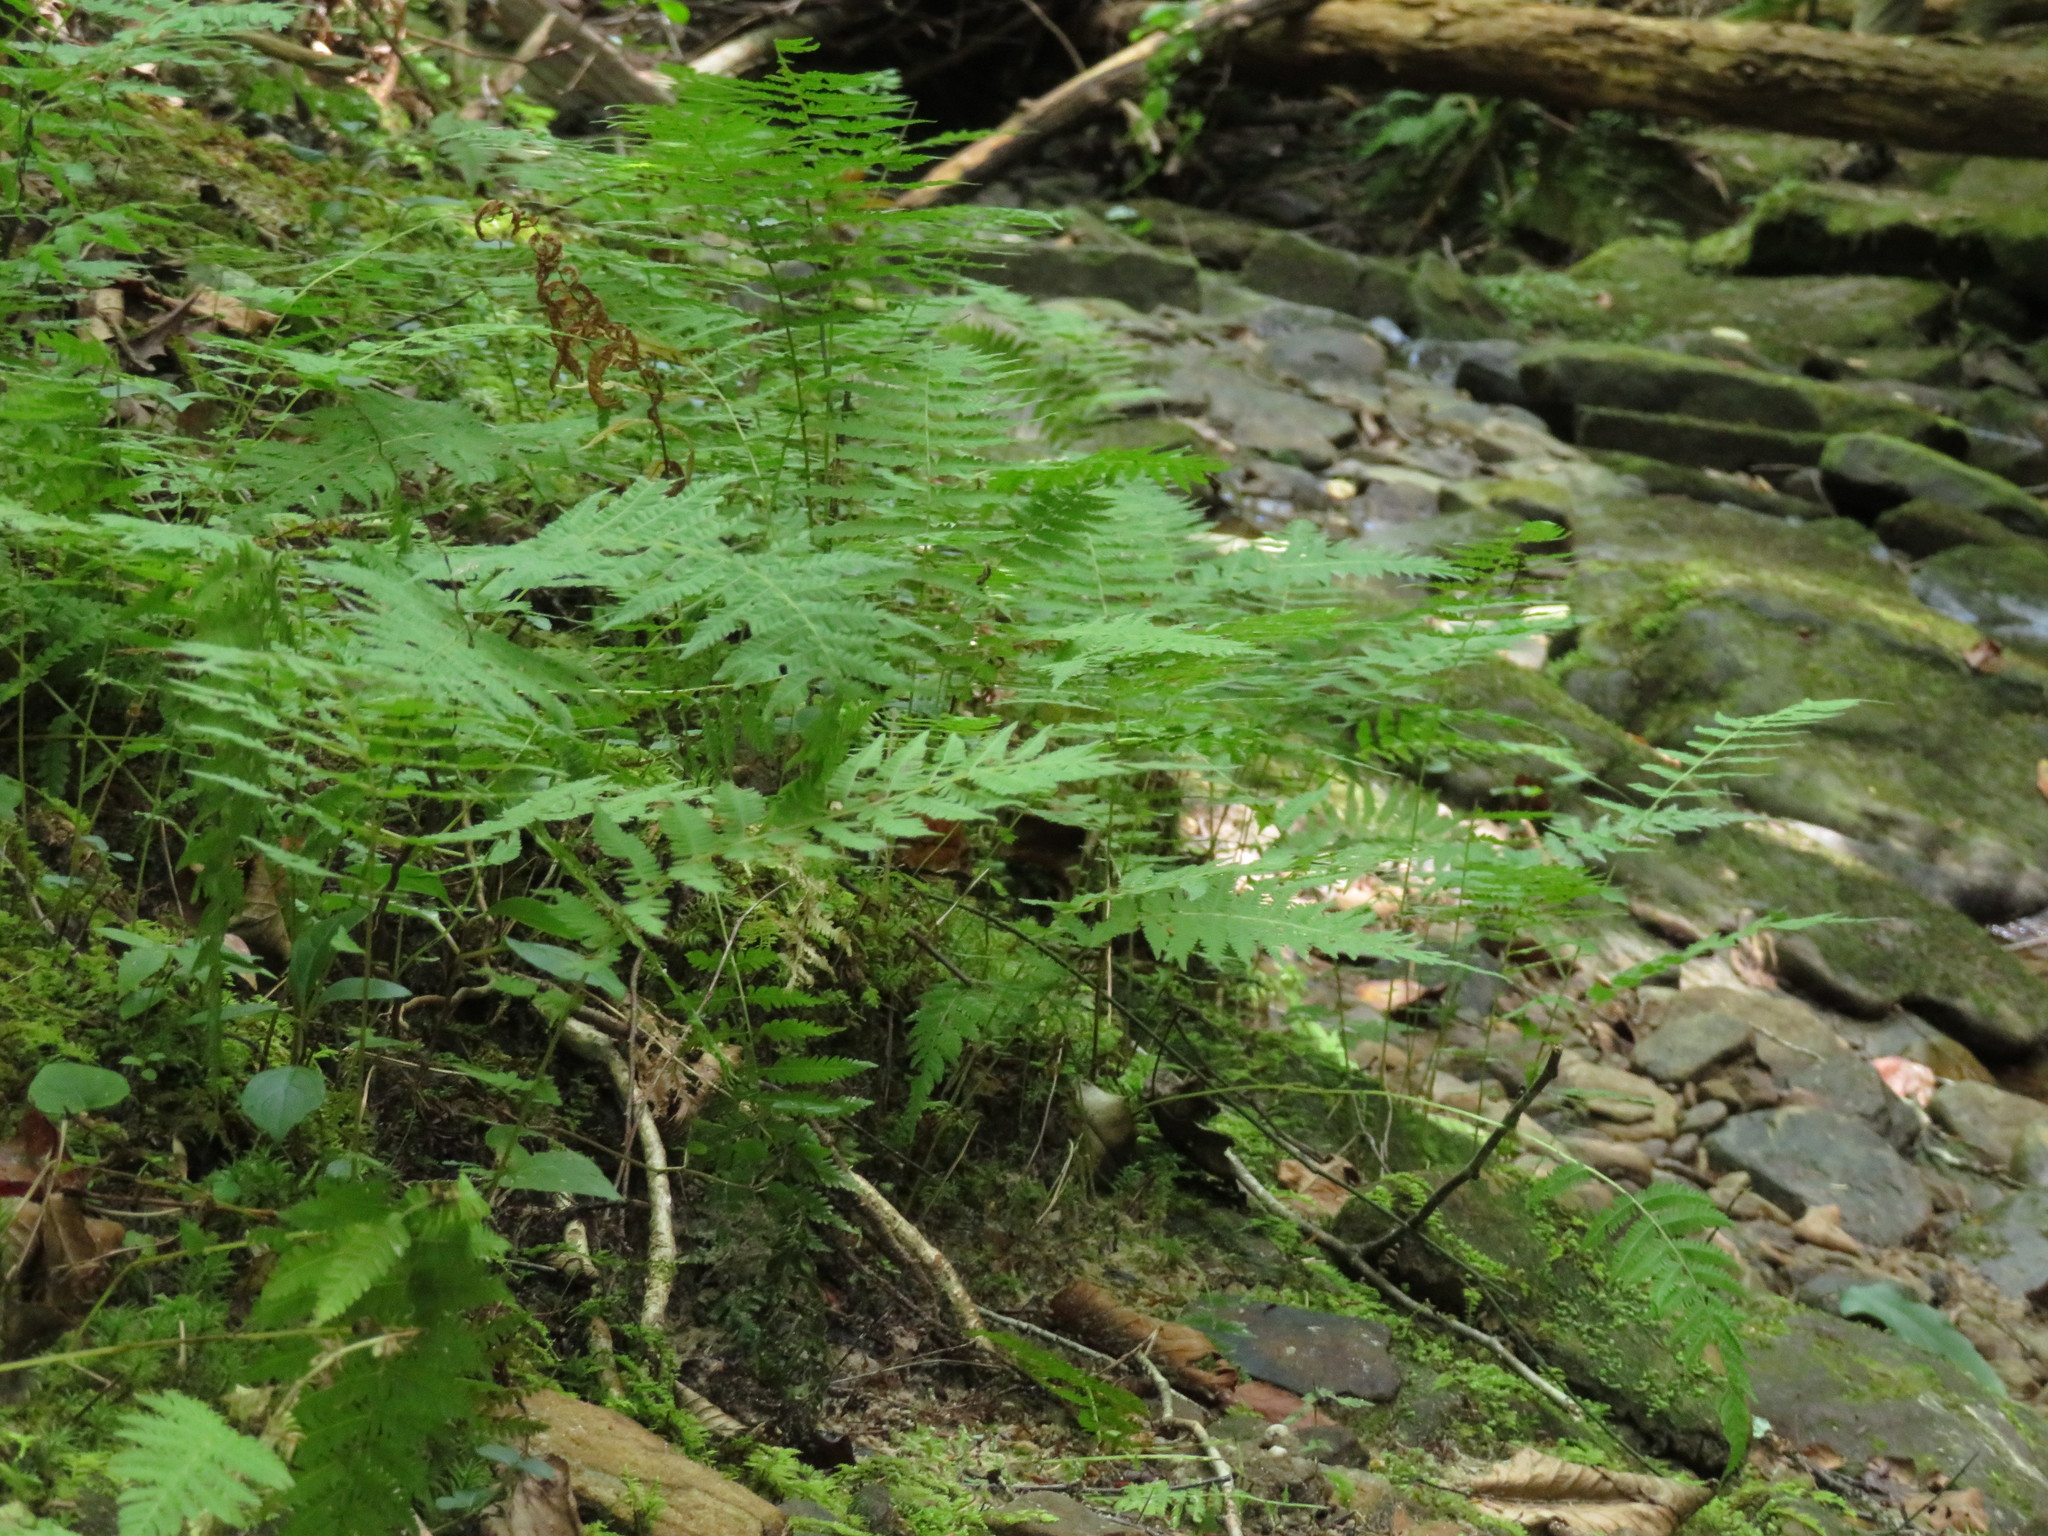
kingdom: Plantae
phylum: Tracheophyta
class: Polypodiopsida
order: Polypodiales
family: Thelypteridaceae
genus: Amauropelta
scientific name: Amauropelta noveboracensis
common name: New york fern
